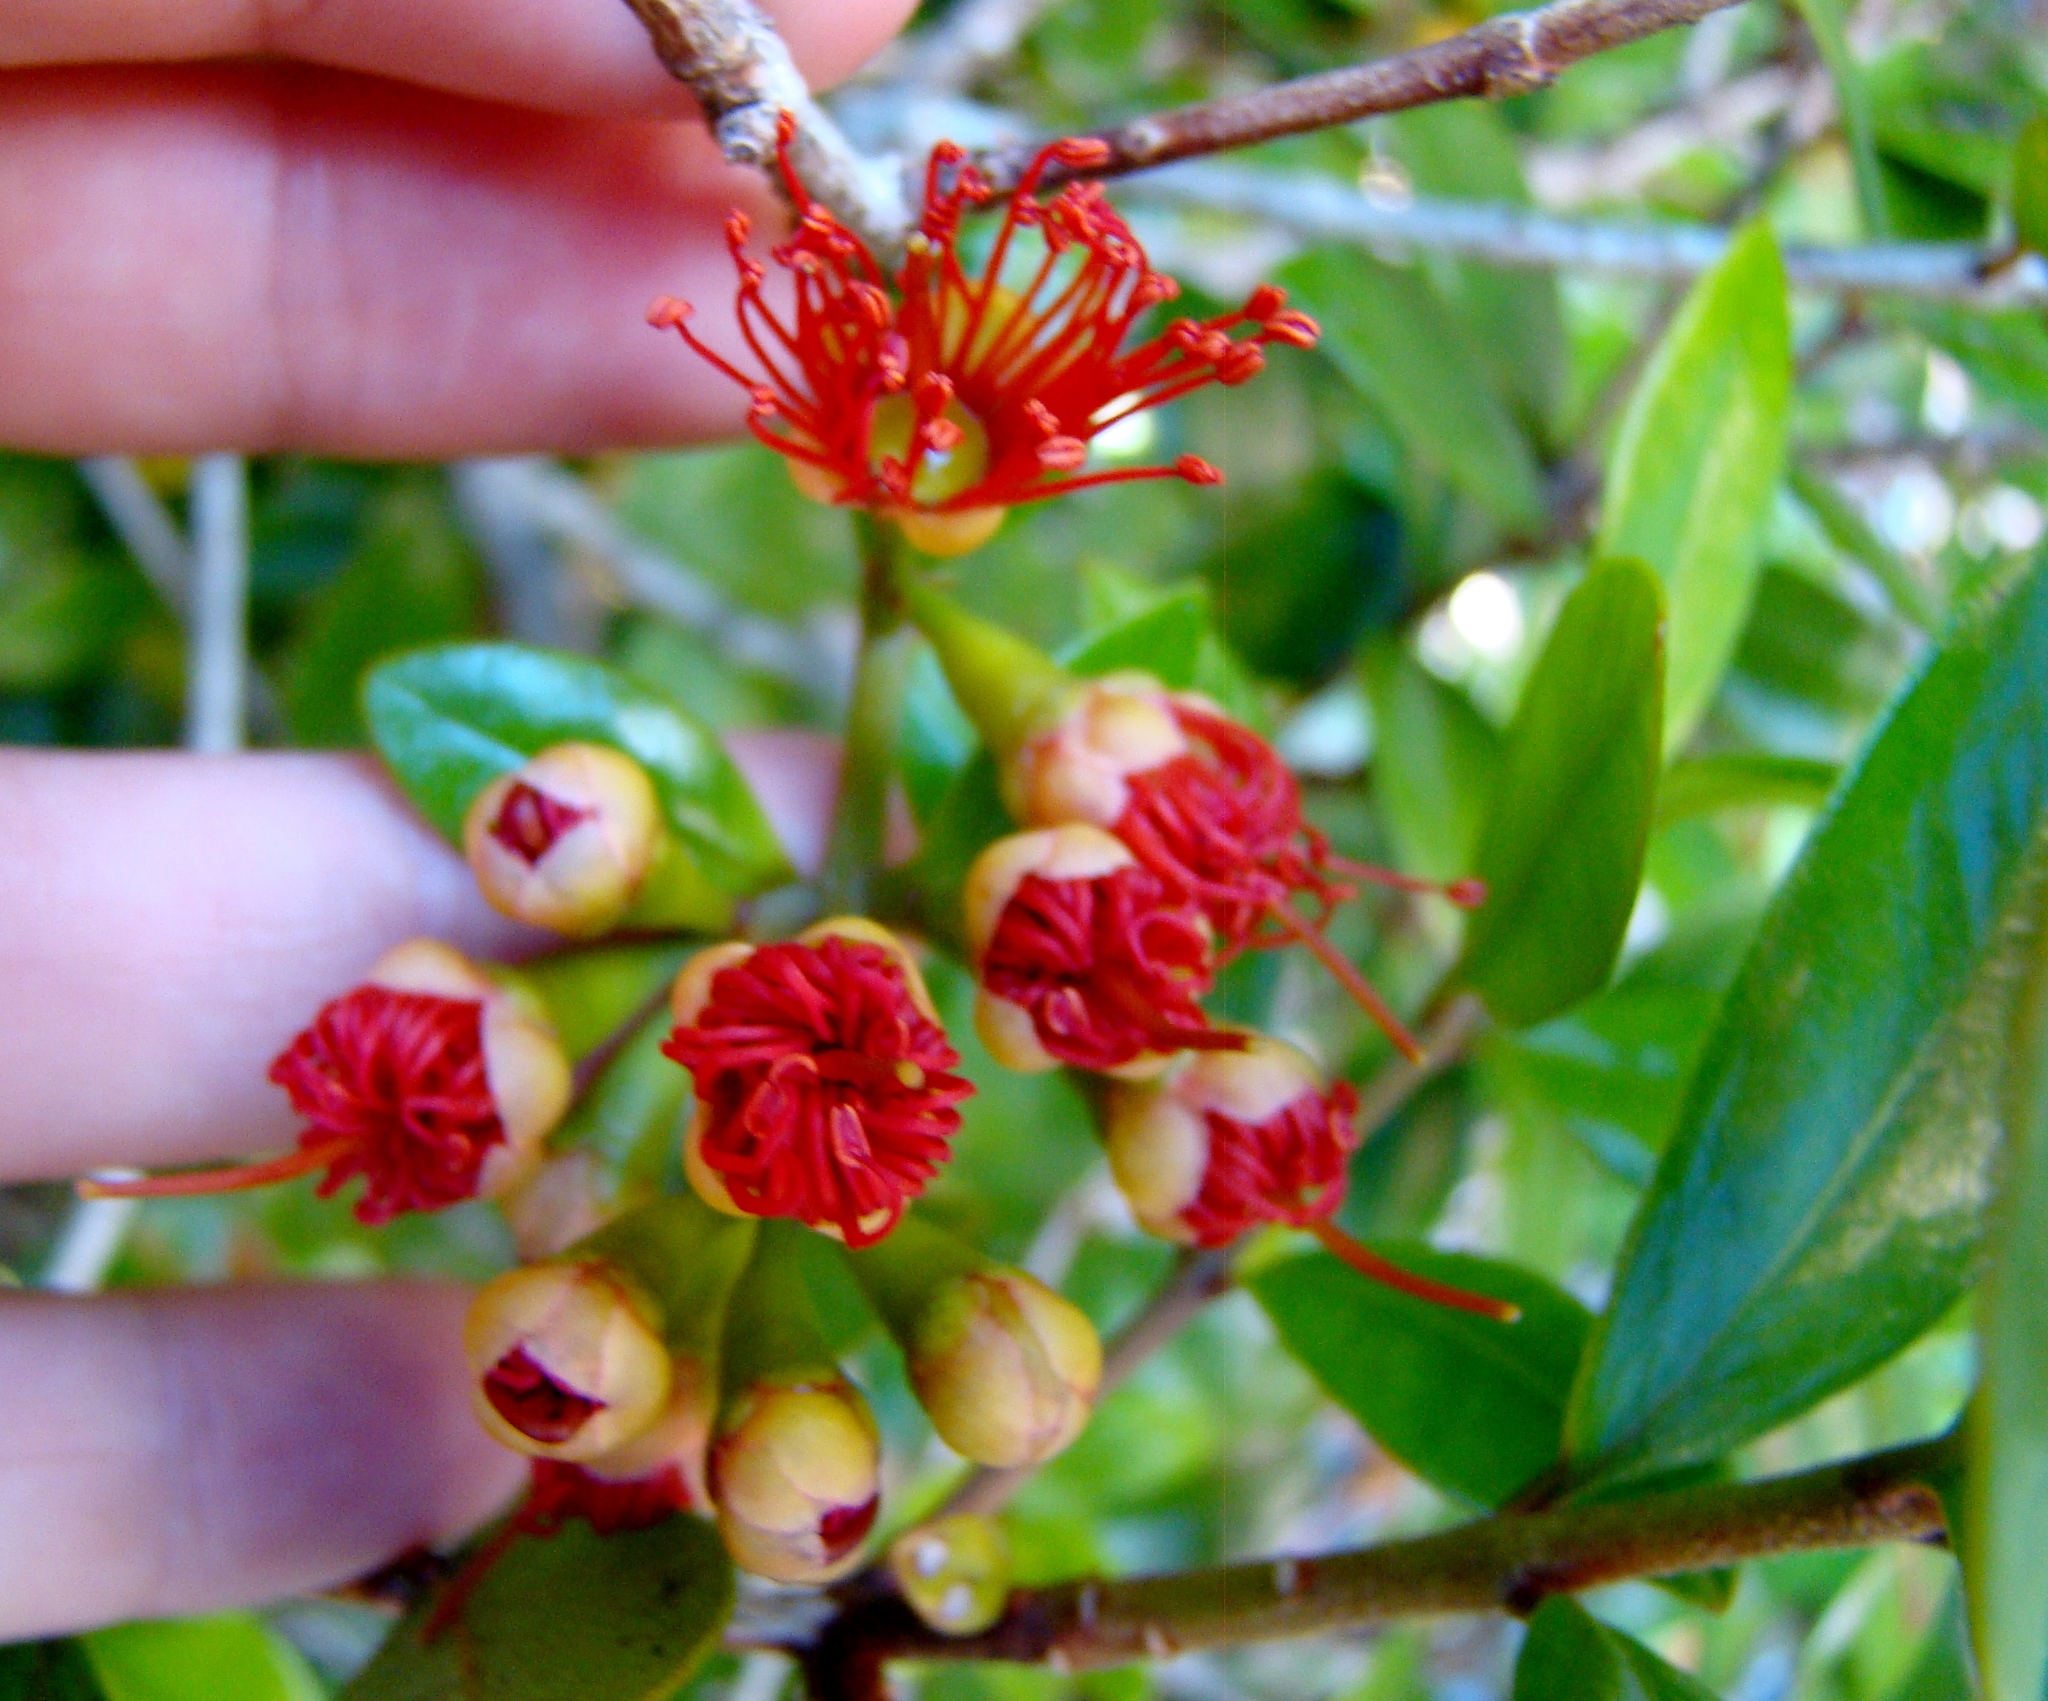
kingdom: Plantae
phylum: Tracheophyta
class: Magnoliopsida
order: Myrtales
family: Myrtaceae
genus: Metrosideros
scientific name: Metrosideros fulgens
